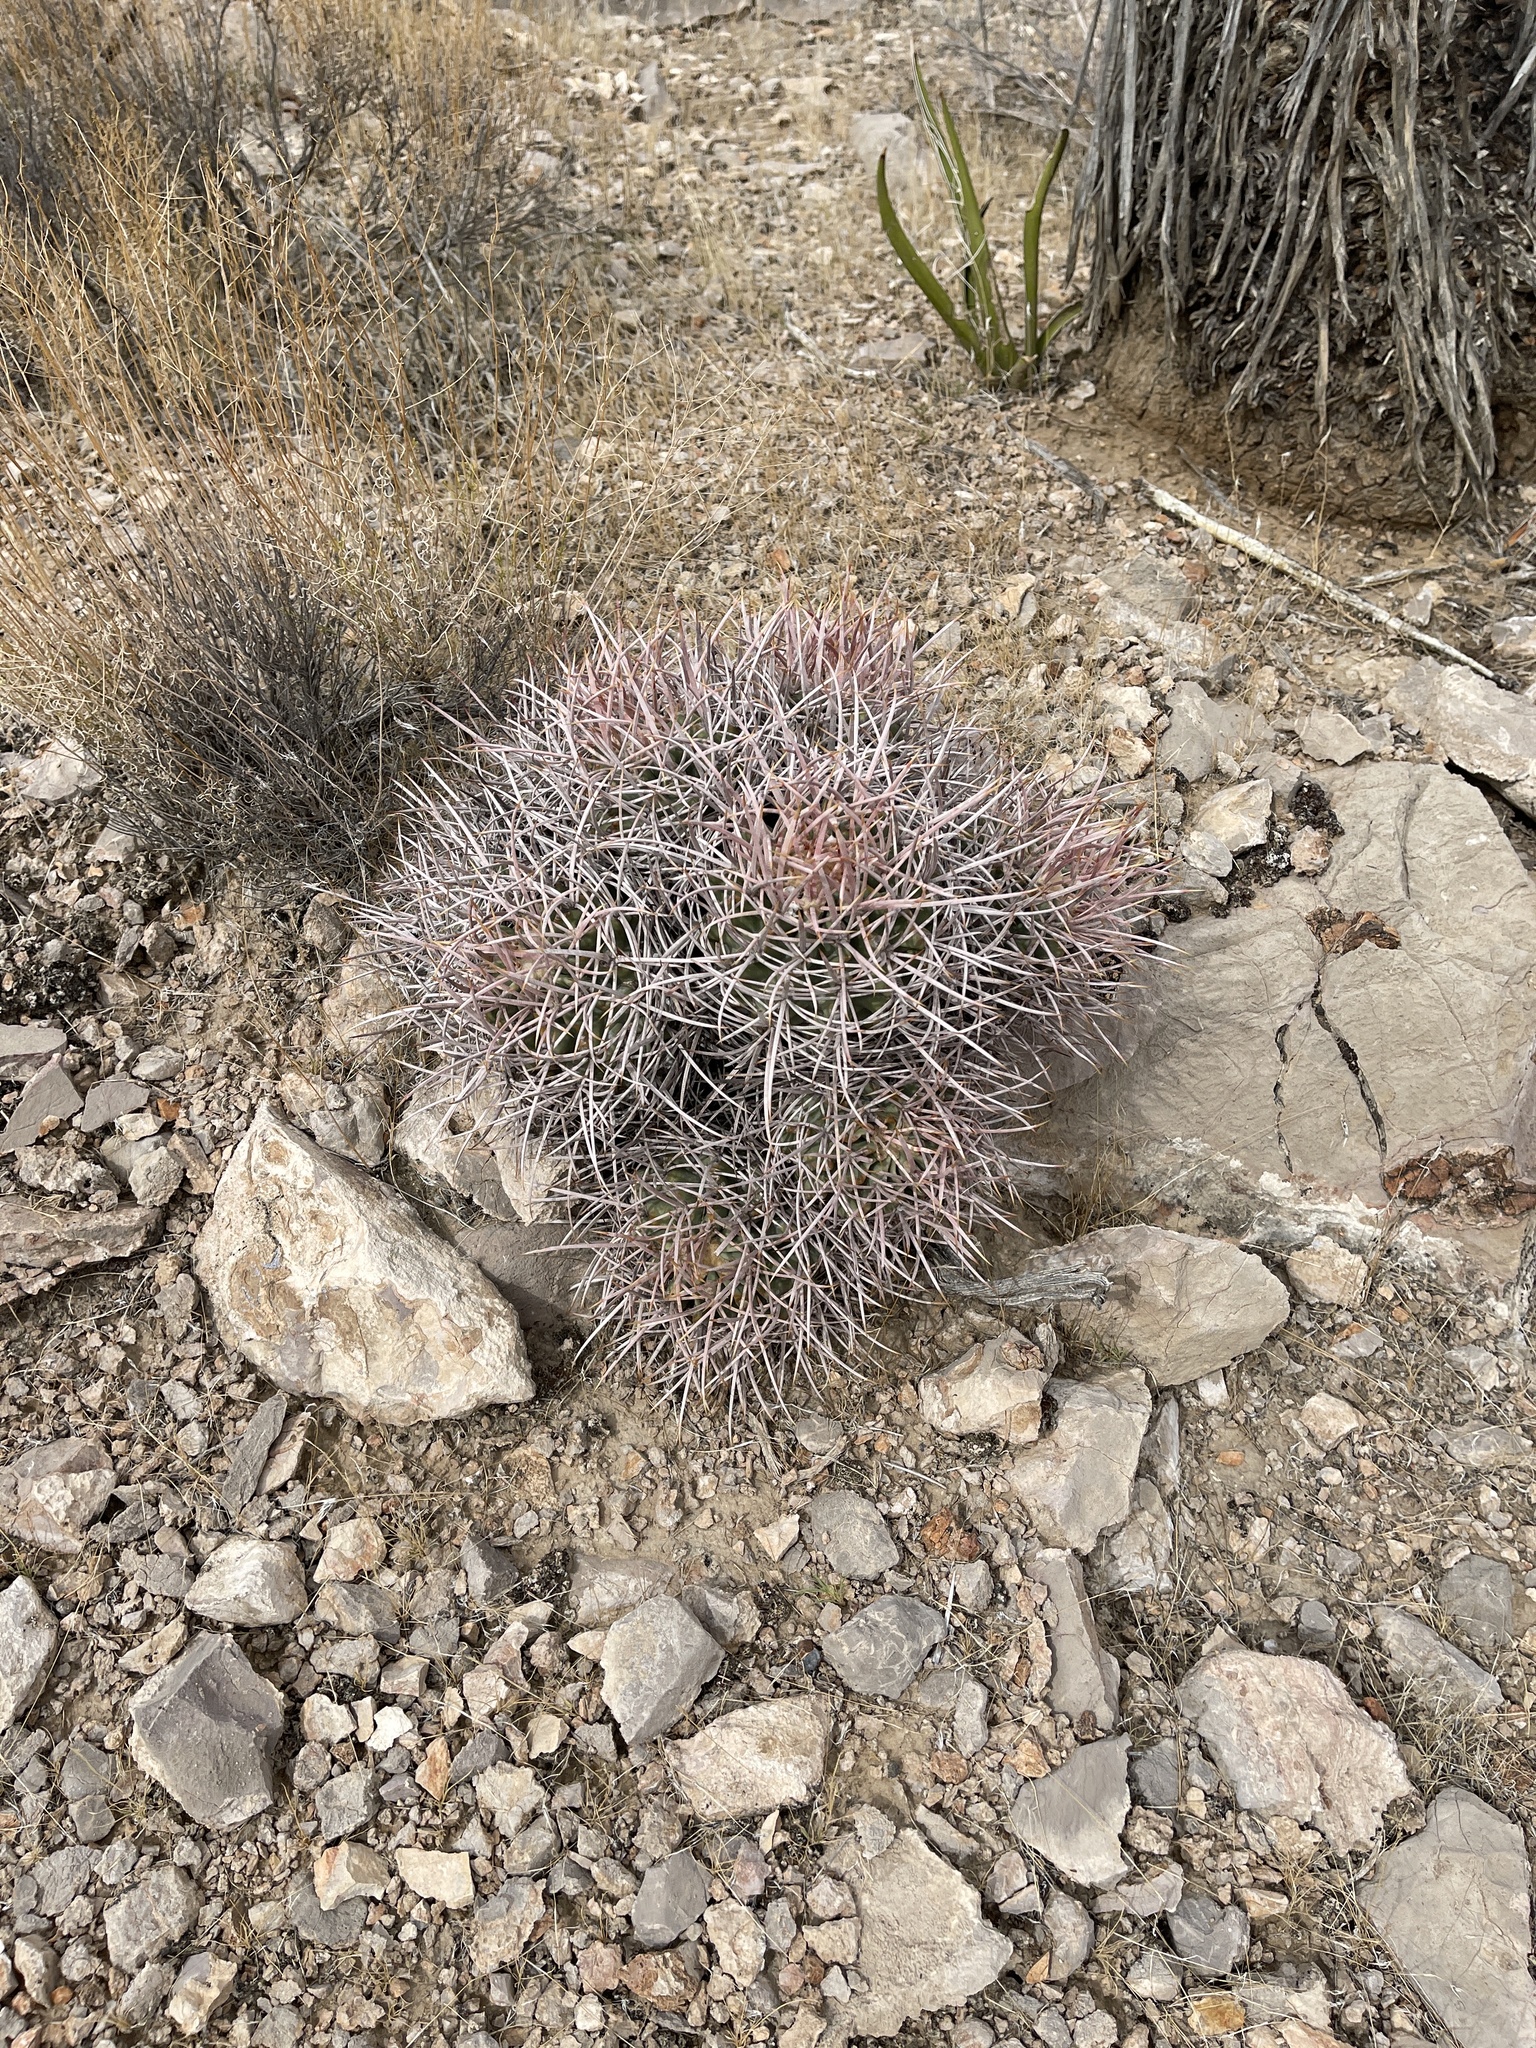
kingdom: Plantae
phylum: Tracheophyta
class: Magnoliopsida
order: Caryophyllales
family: Cactaceae
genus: Echinocactus
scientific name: Echinocactus polycephalus
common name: Cottontop cactus
